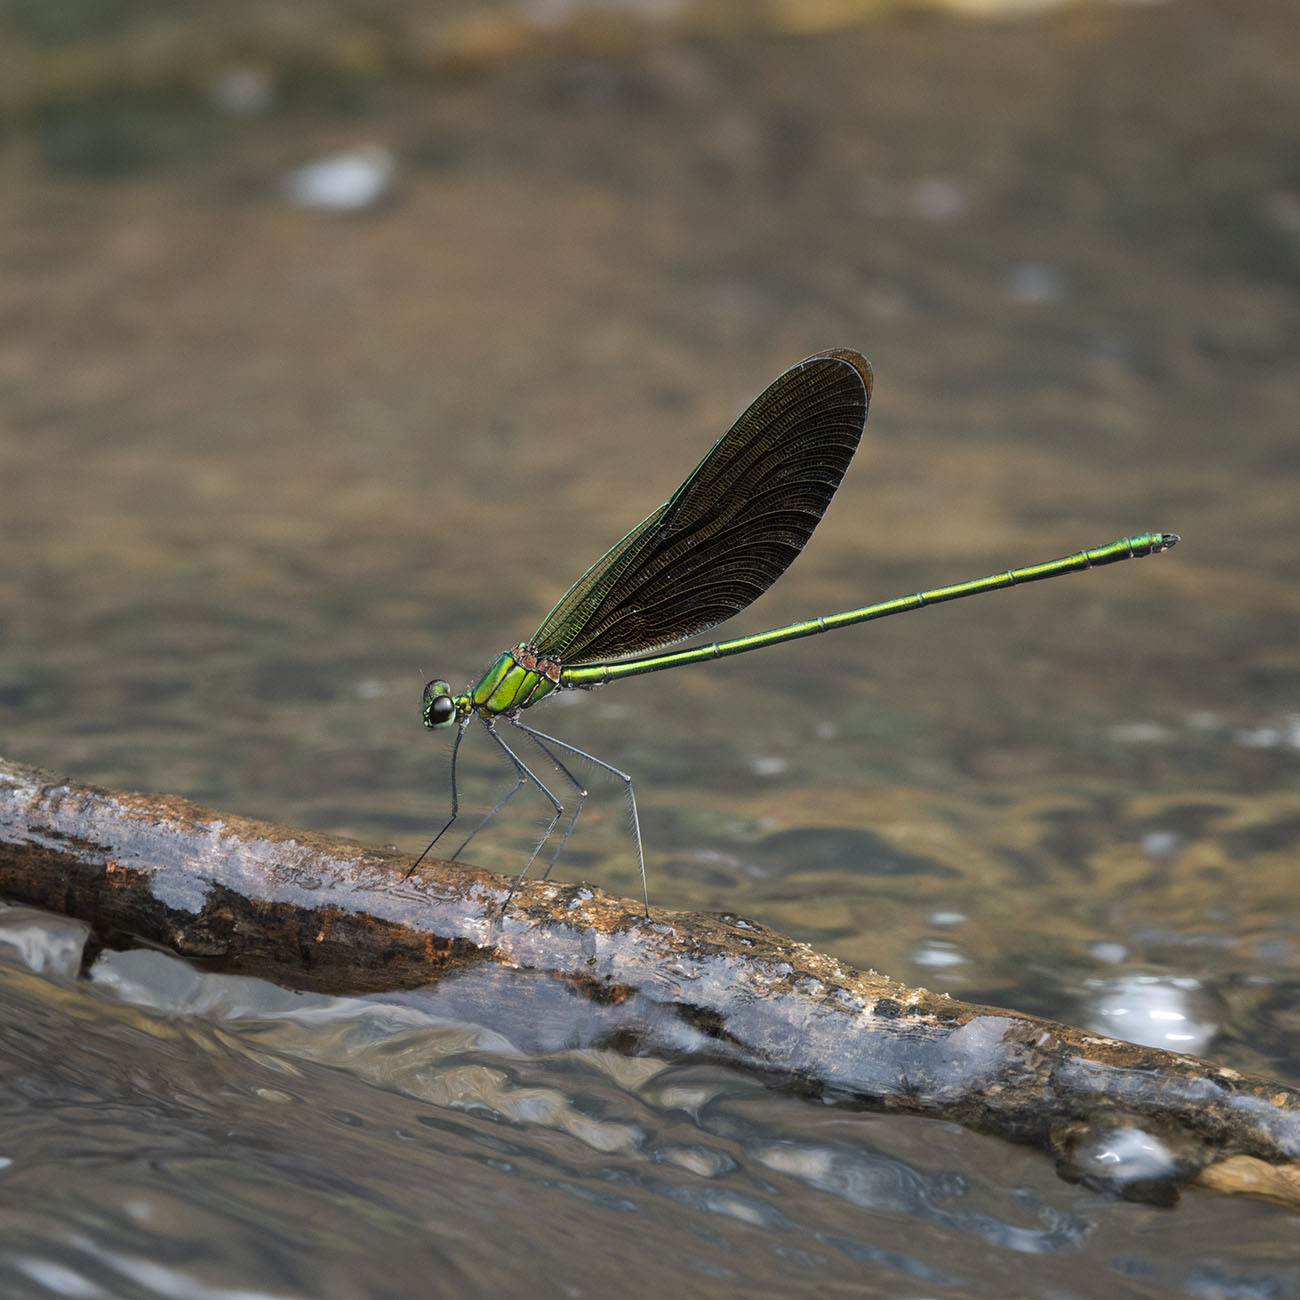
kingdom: Animalia
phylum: Arthropoda
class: Insecta
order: Odonata
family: Calopterygidae
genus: Neurobasis
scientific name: Neurobasis chinensis
